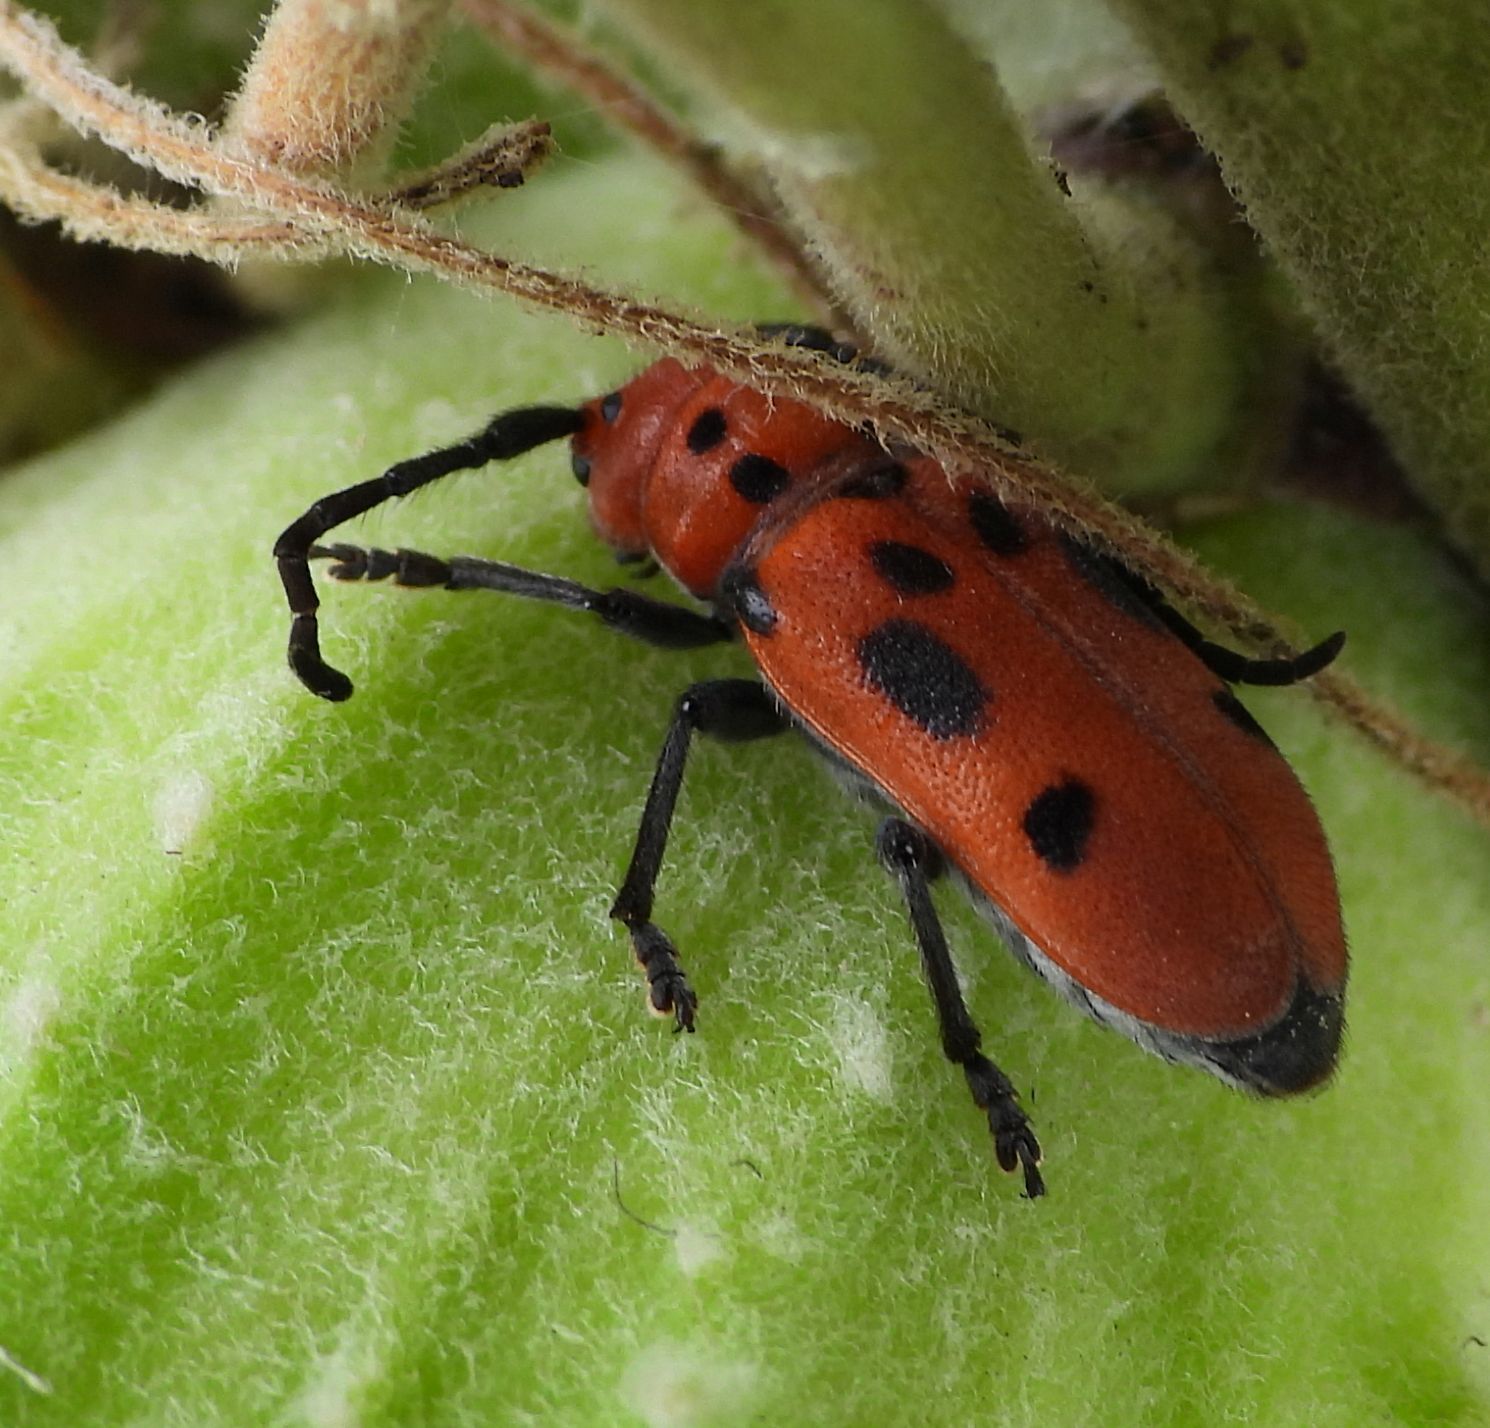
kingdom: Animalia
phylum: Arthropoda
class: Insecta
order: Coleoptera
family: Cerambycidae
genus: Tetraopes
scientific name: Tetraopes tetrophthalmus
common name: Red milkweed beetle
